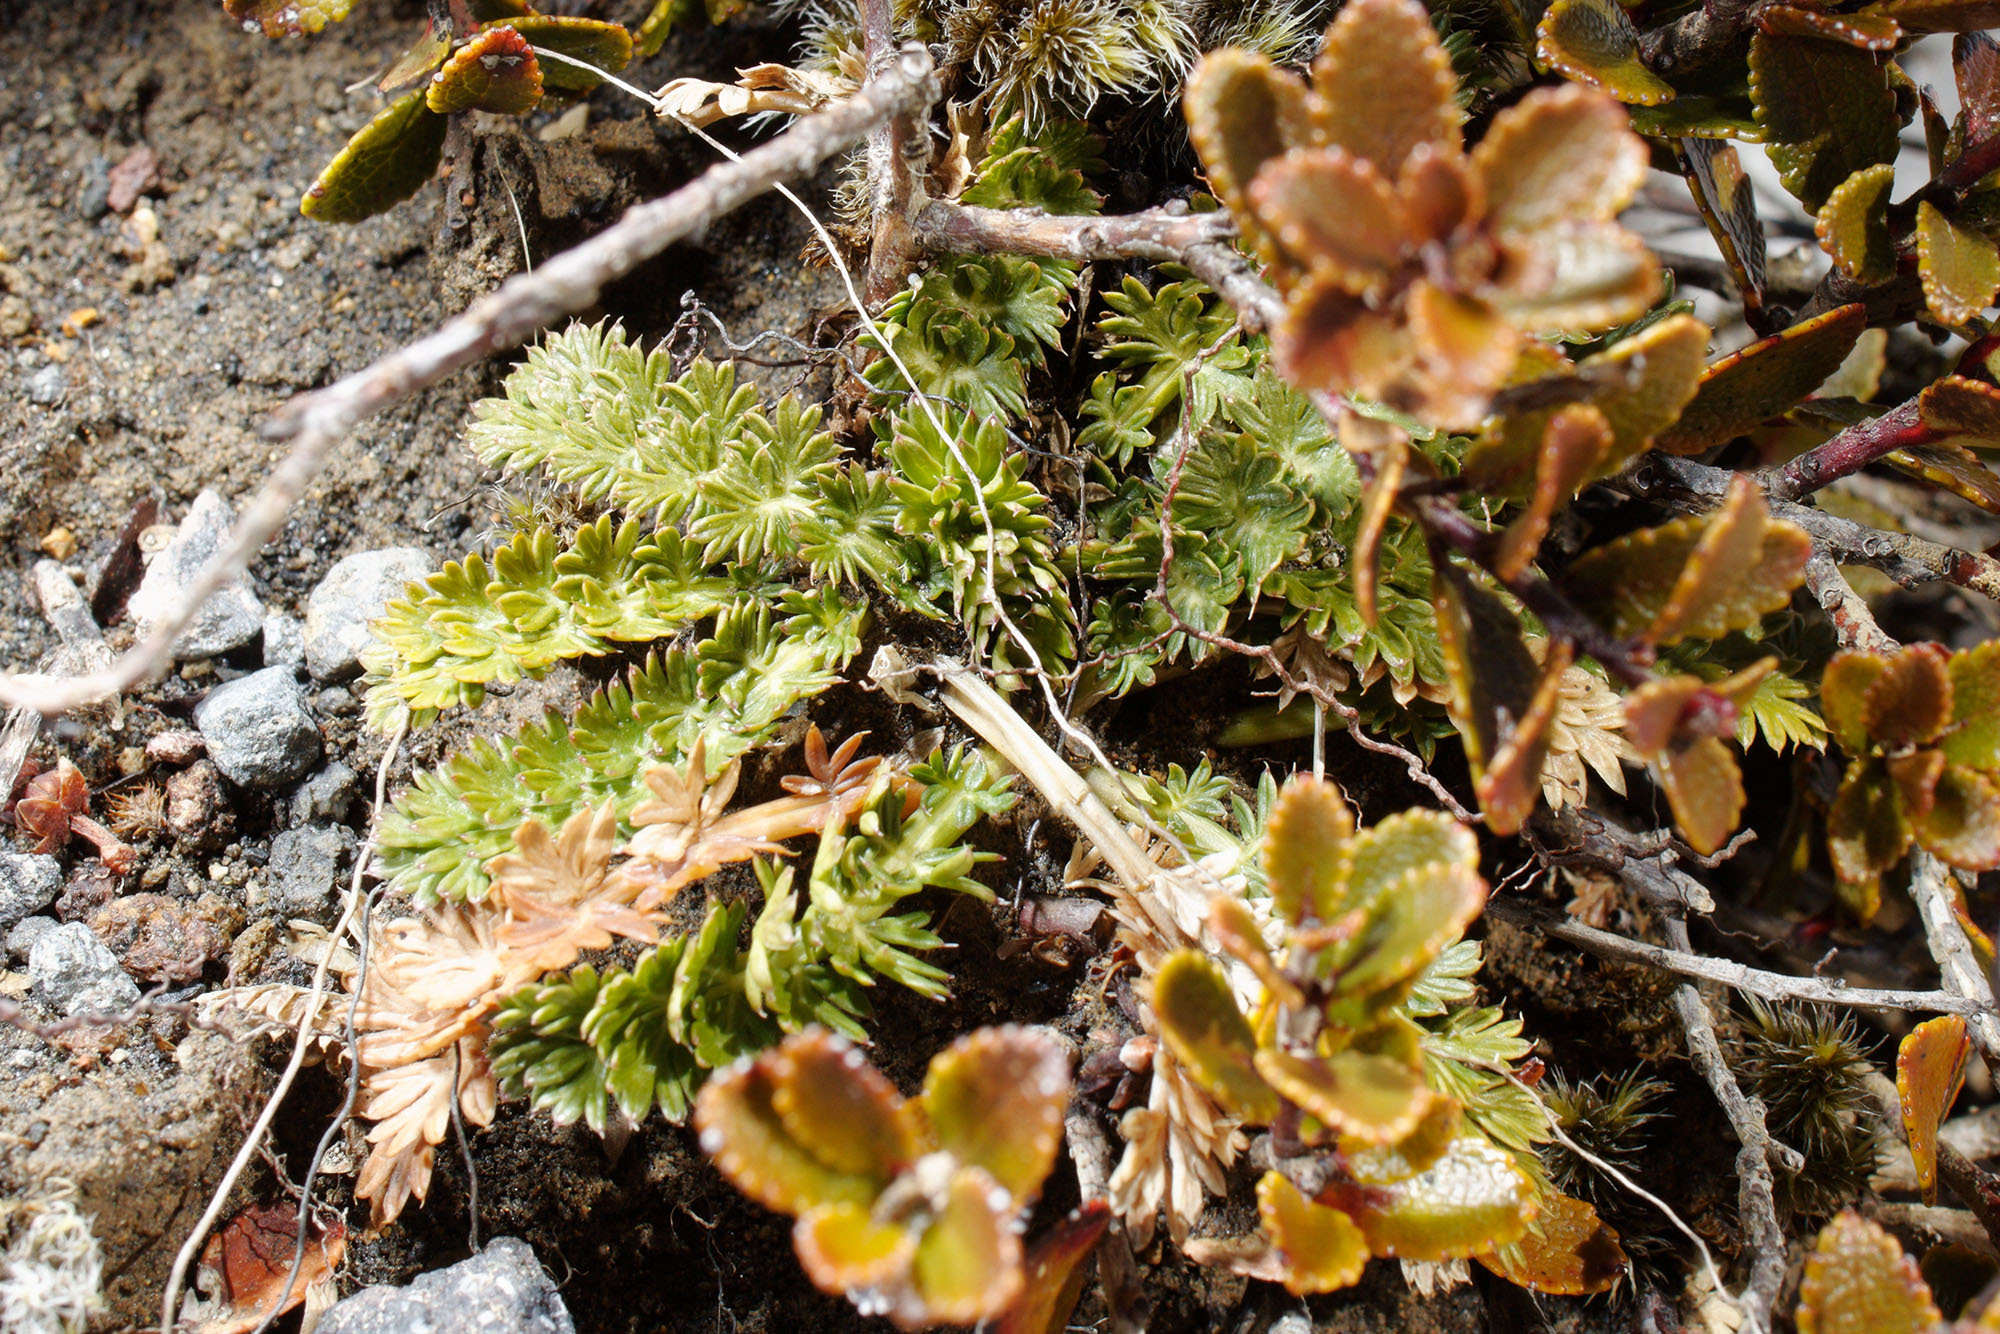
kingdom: Plantae
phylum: Tracheophyta
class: Magnoliopsida
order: Apiales
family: Apiaceae
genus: Anisotome
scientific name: Anisotome aromatica
